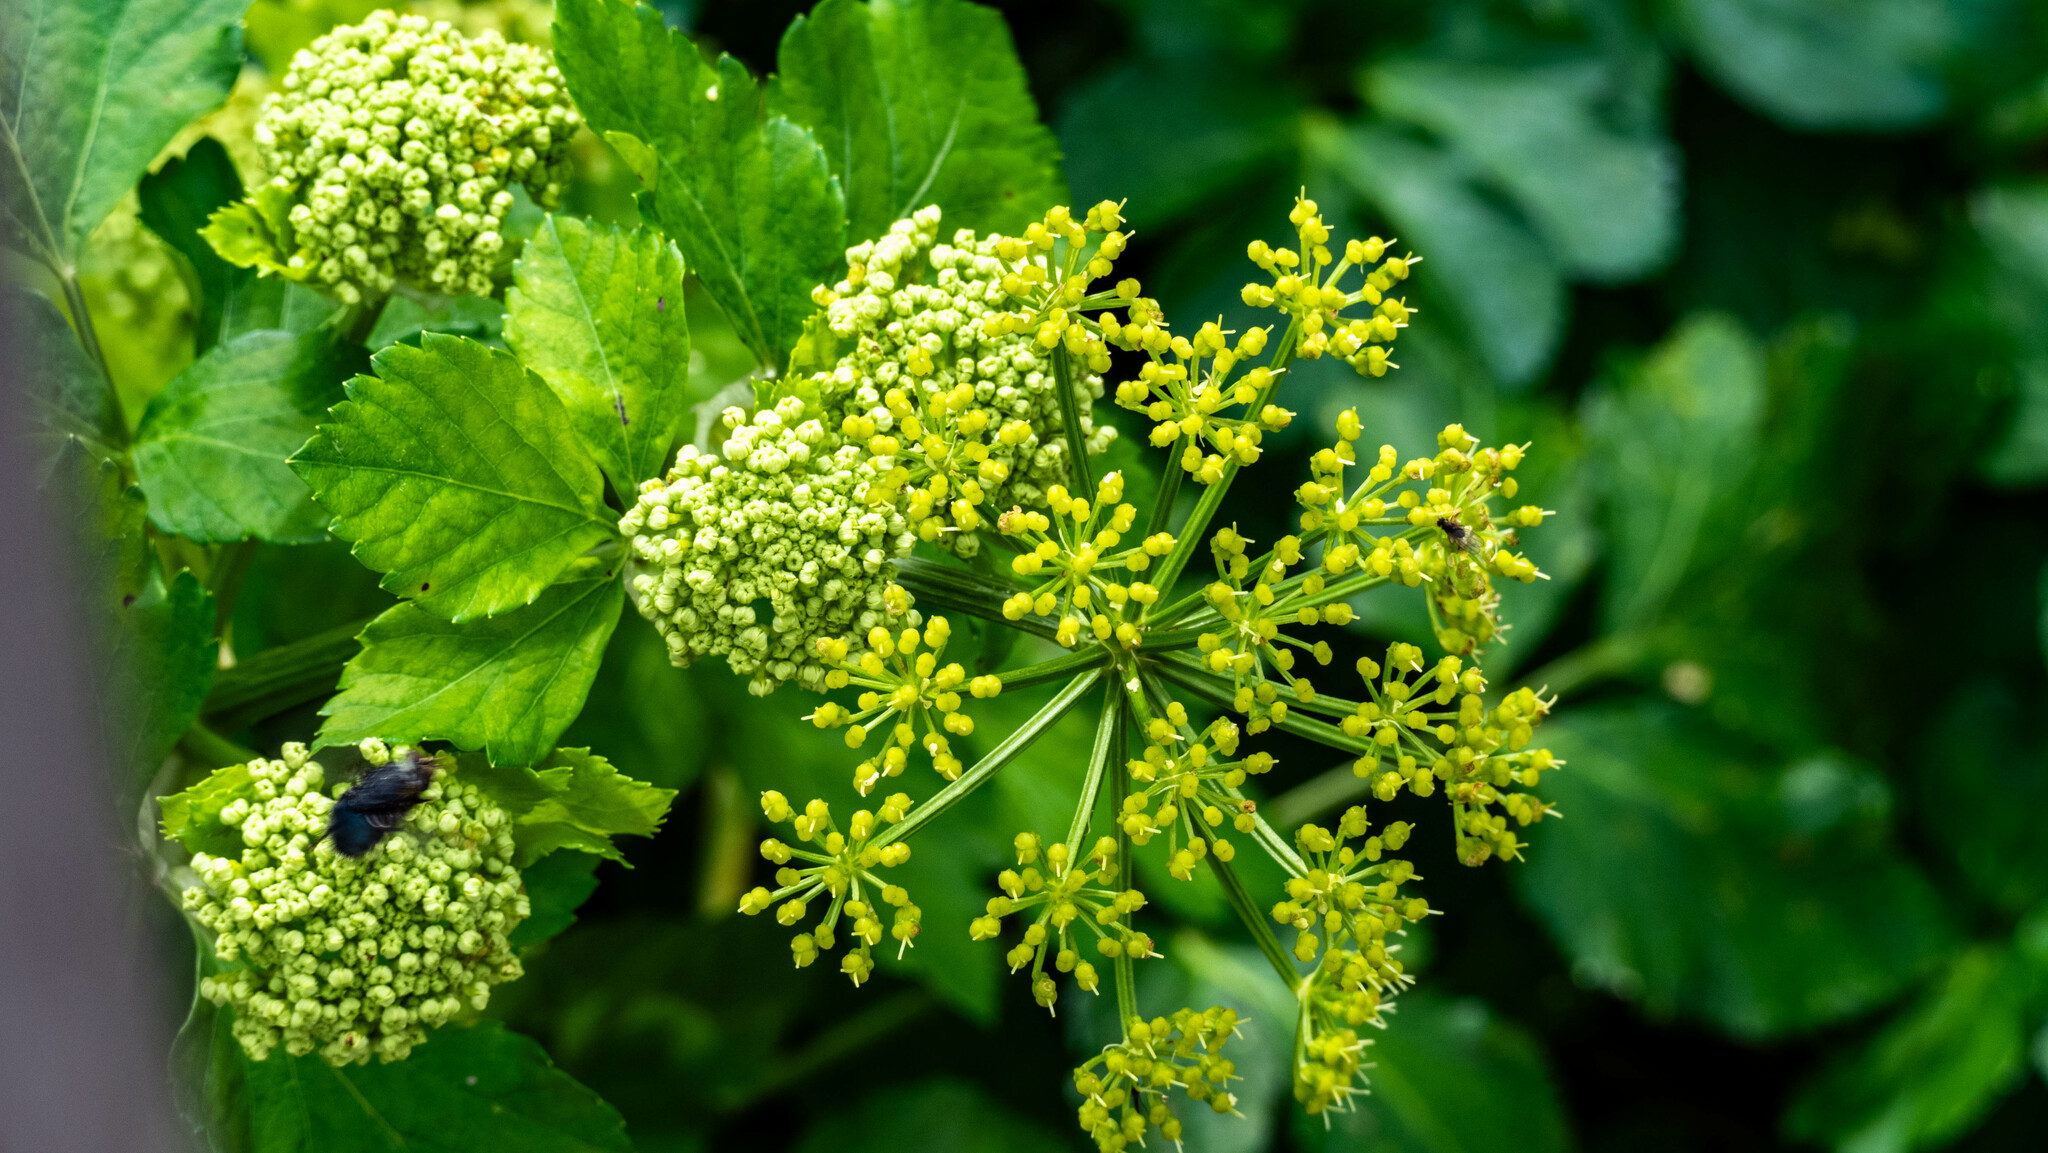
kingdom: Plantae
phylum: Tracheophyta
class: Magnoliopsida
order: Apiales
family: Apiaceae
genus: Smyrnium
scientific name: Smyrnium olusatrum
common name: Alexanders
